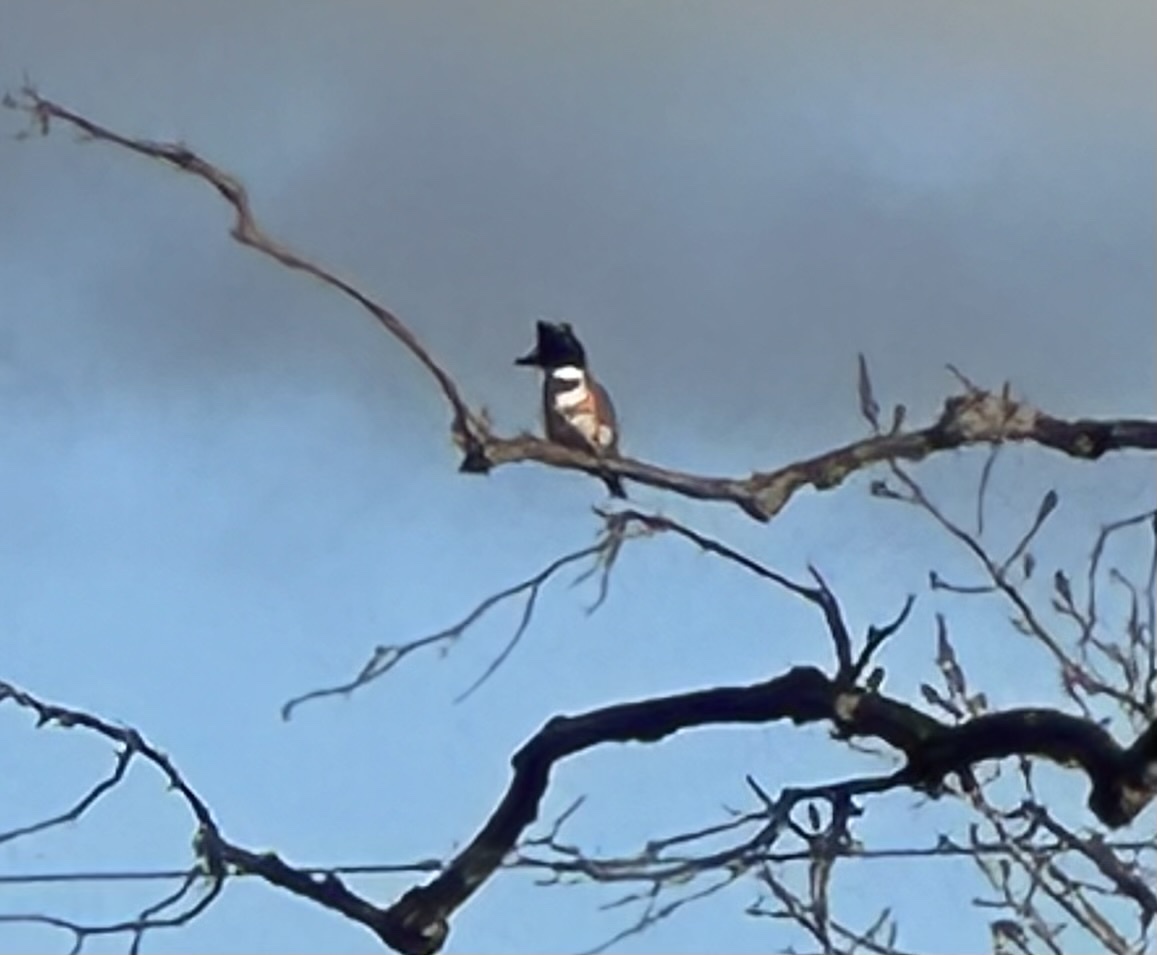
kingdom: Animalia
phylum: Chordata
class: Aves
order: Coraciiformes
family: Alcedinidae
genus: Megaceryle
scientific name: Megaceryle alcyon
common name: Belted kingfisher
